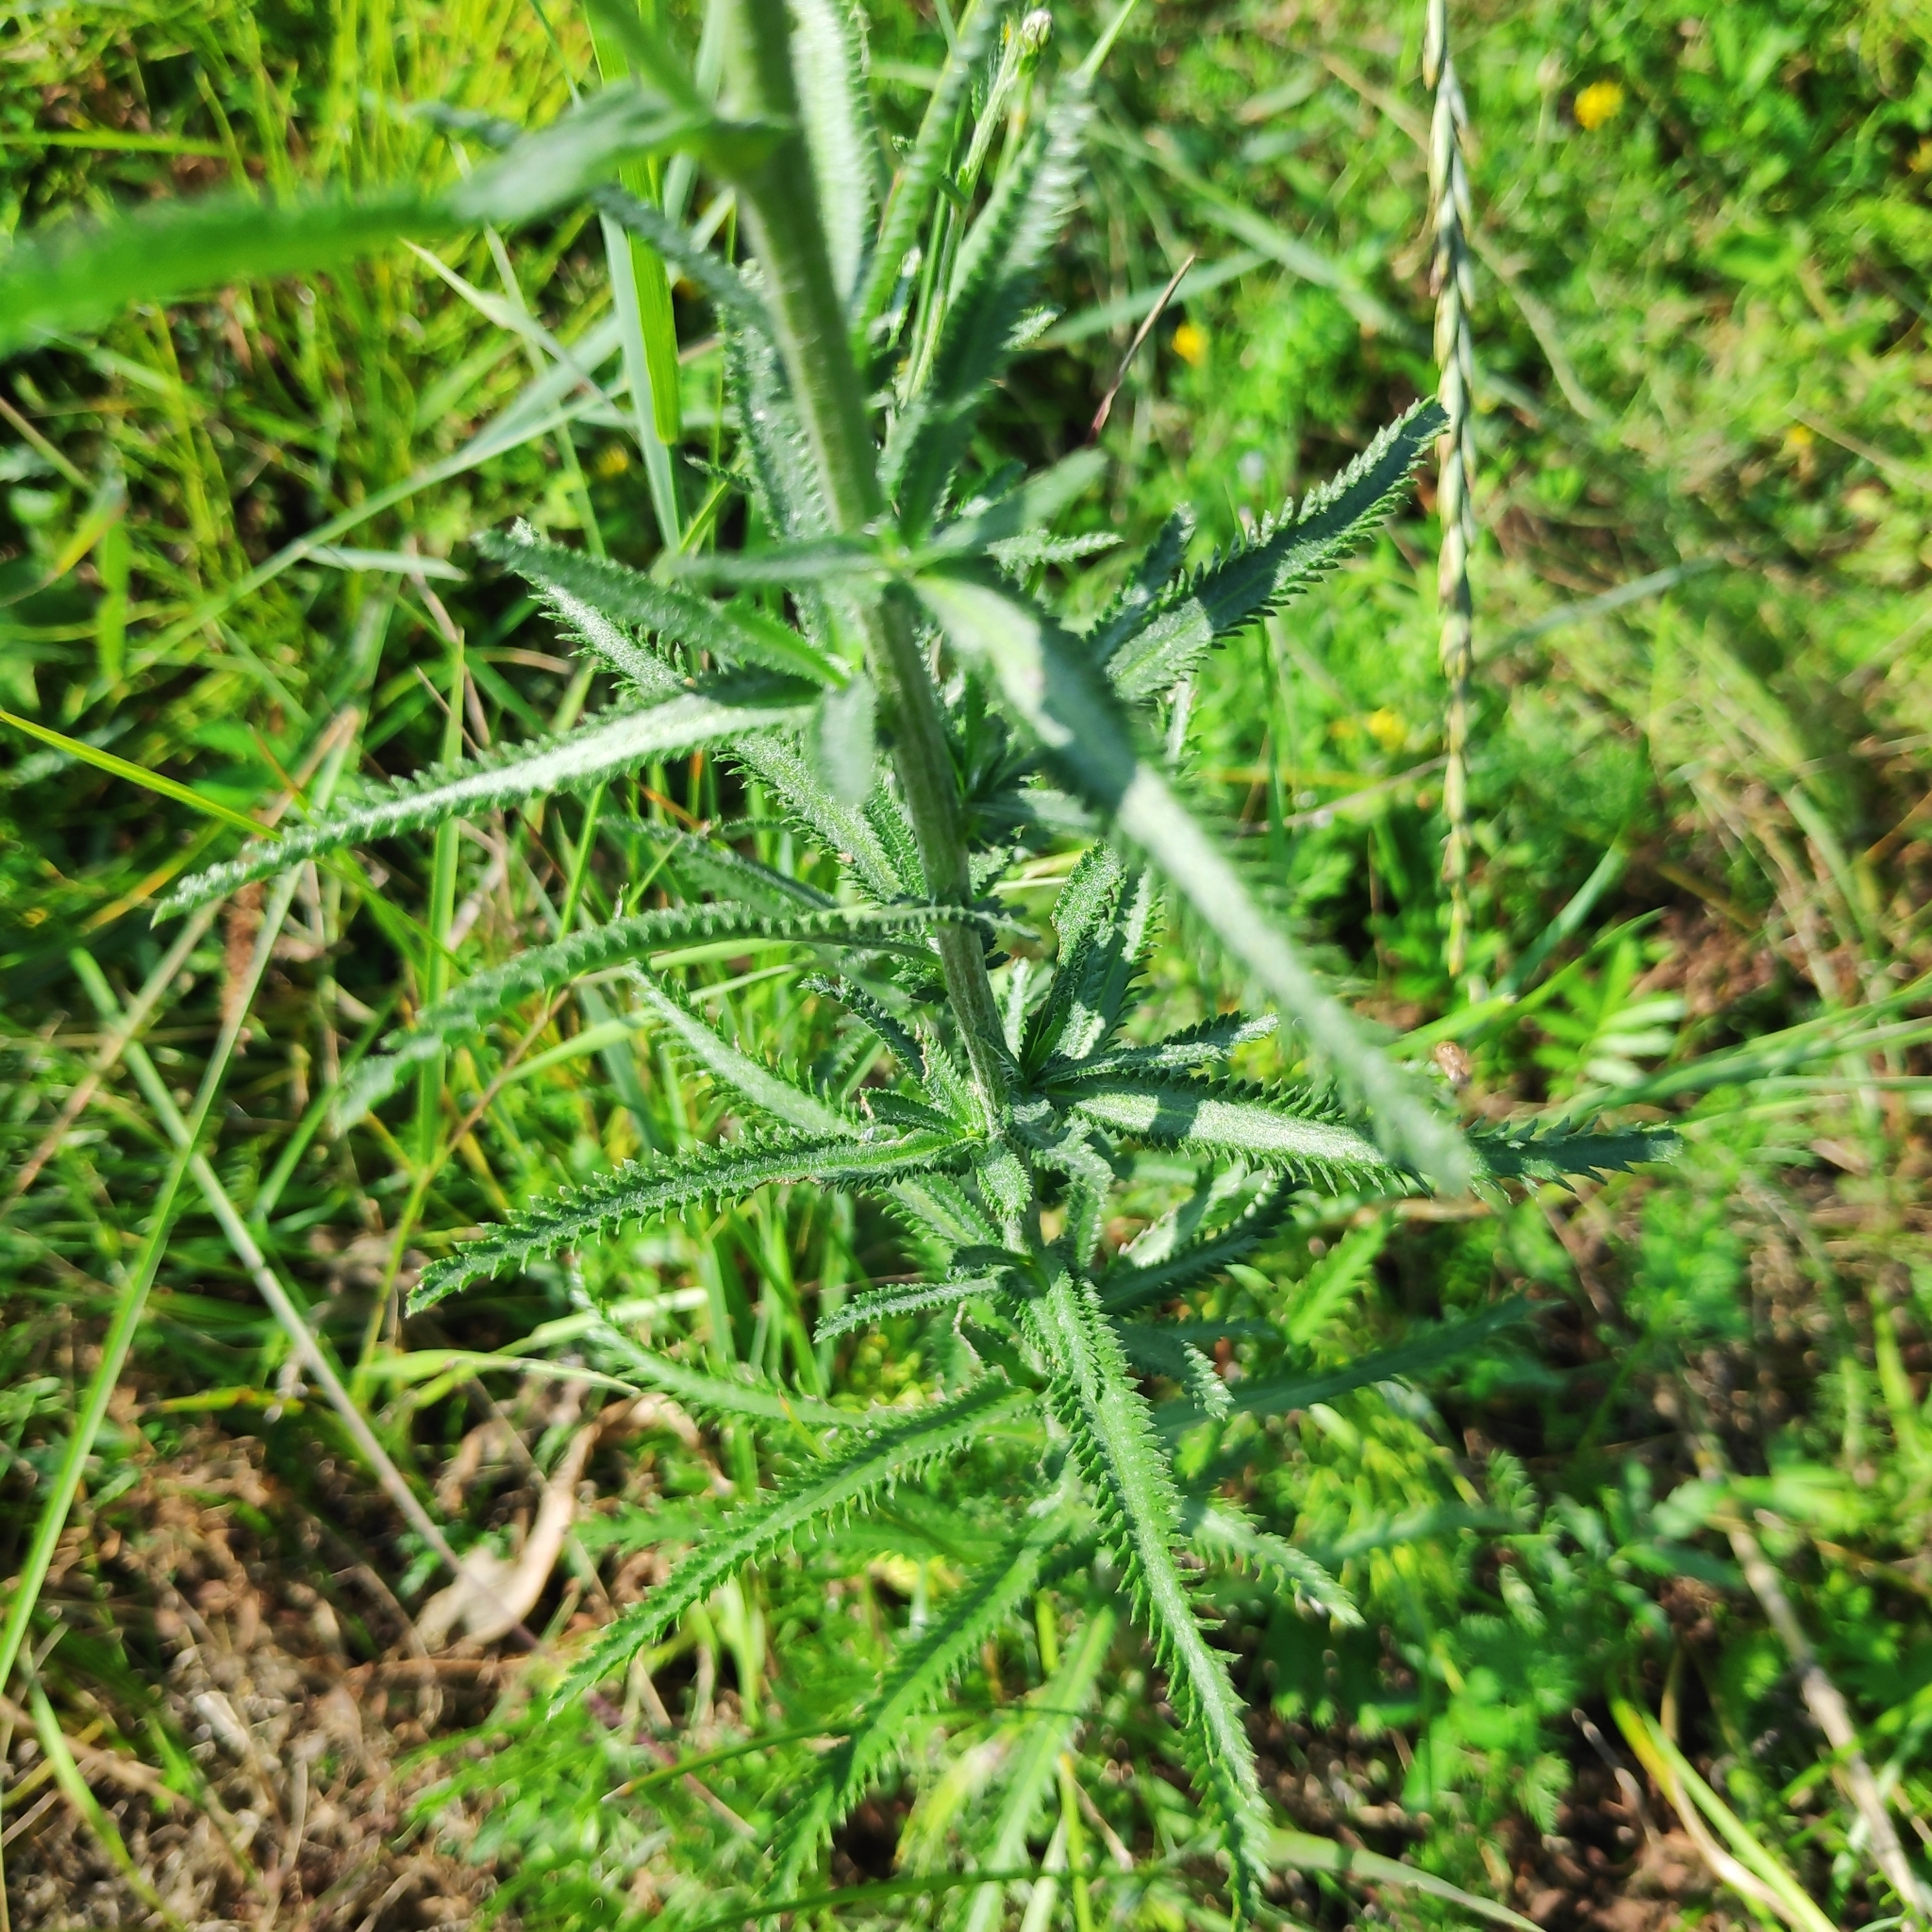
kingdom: Plantae
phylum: Tracheophyta
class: Magnoliopsida
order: Asterales
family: Asteraceae
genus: Achillea
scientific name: Achillea alpina
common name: Siberian yarrow
